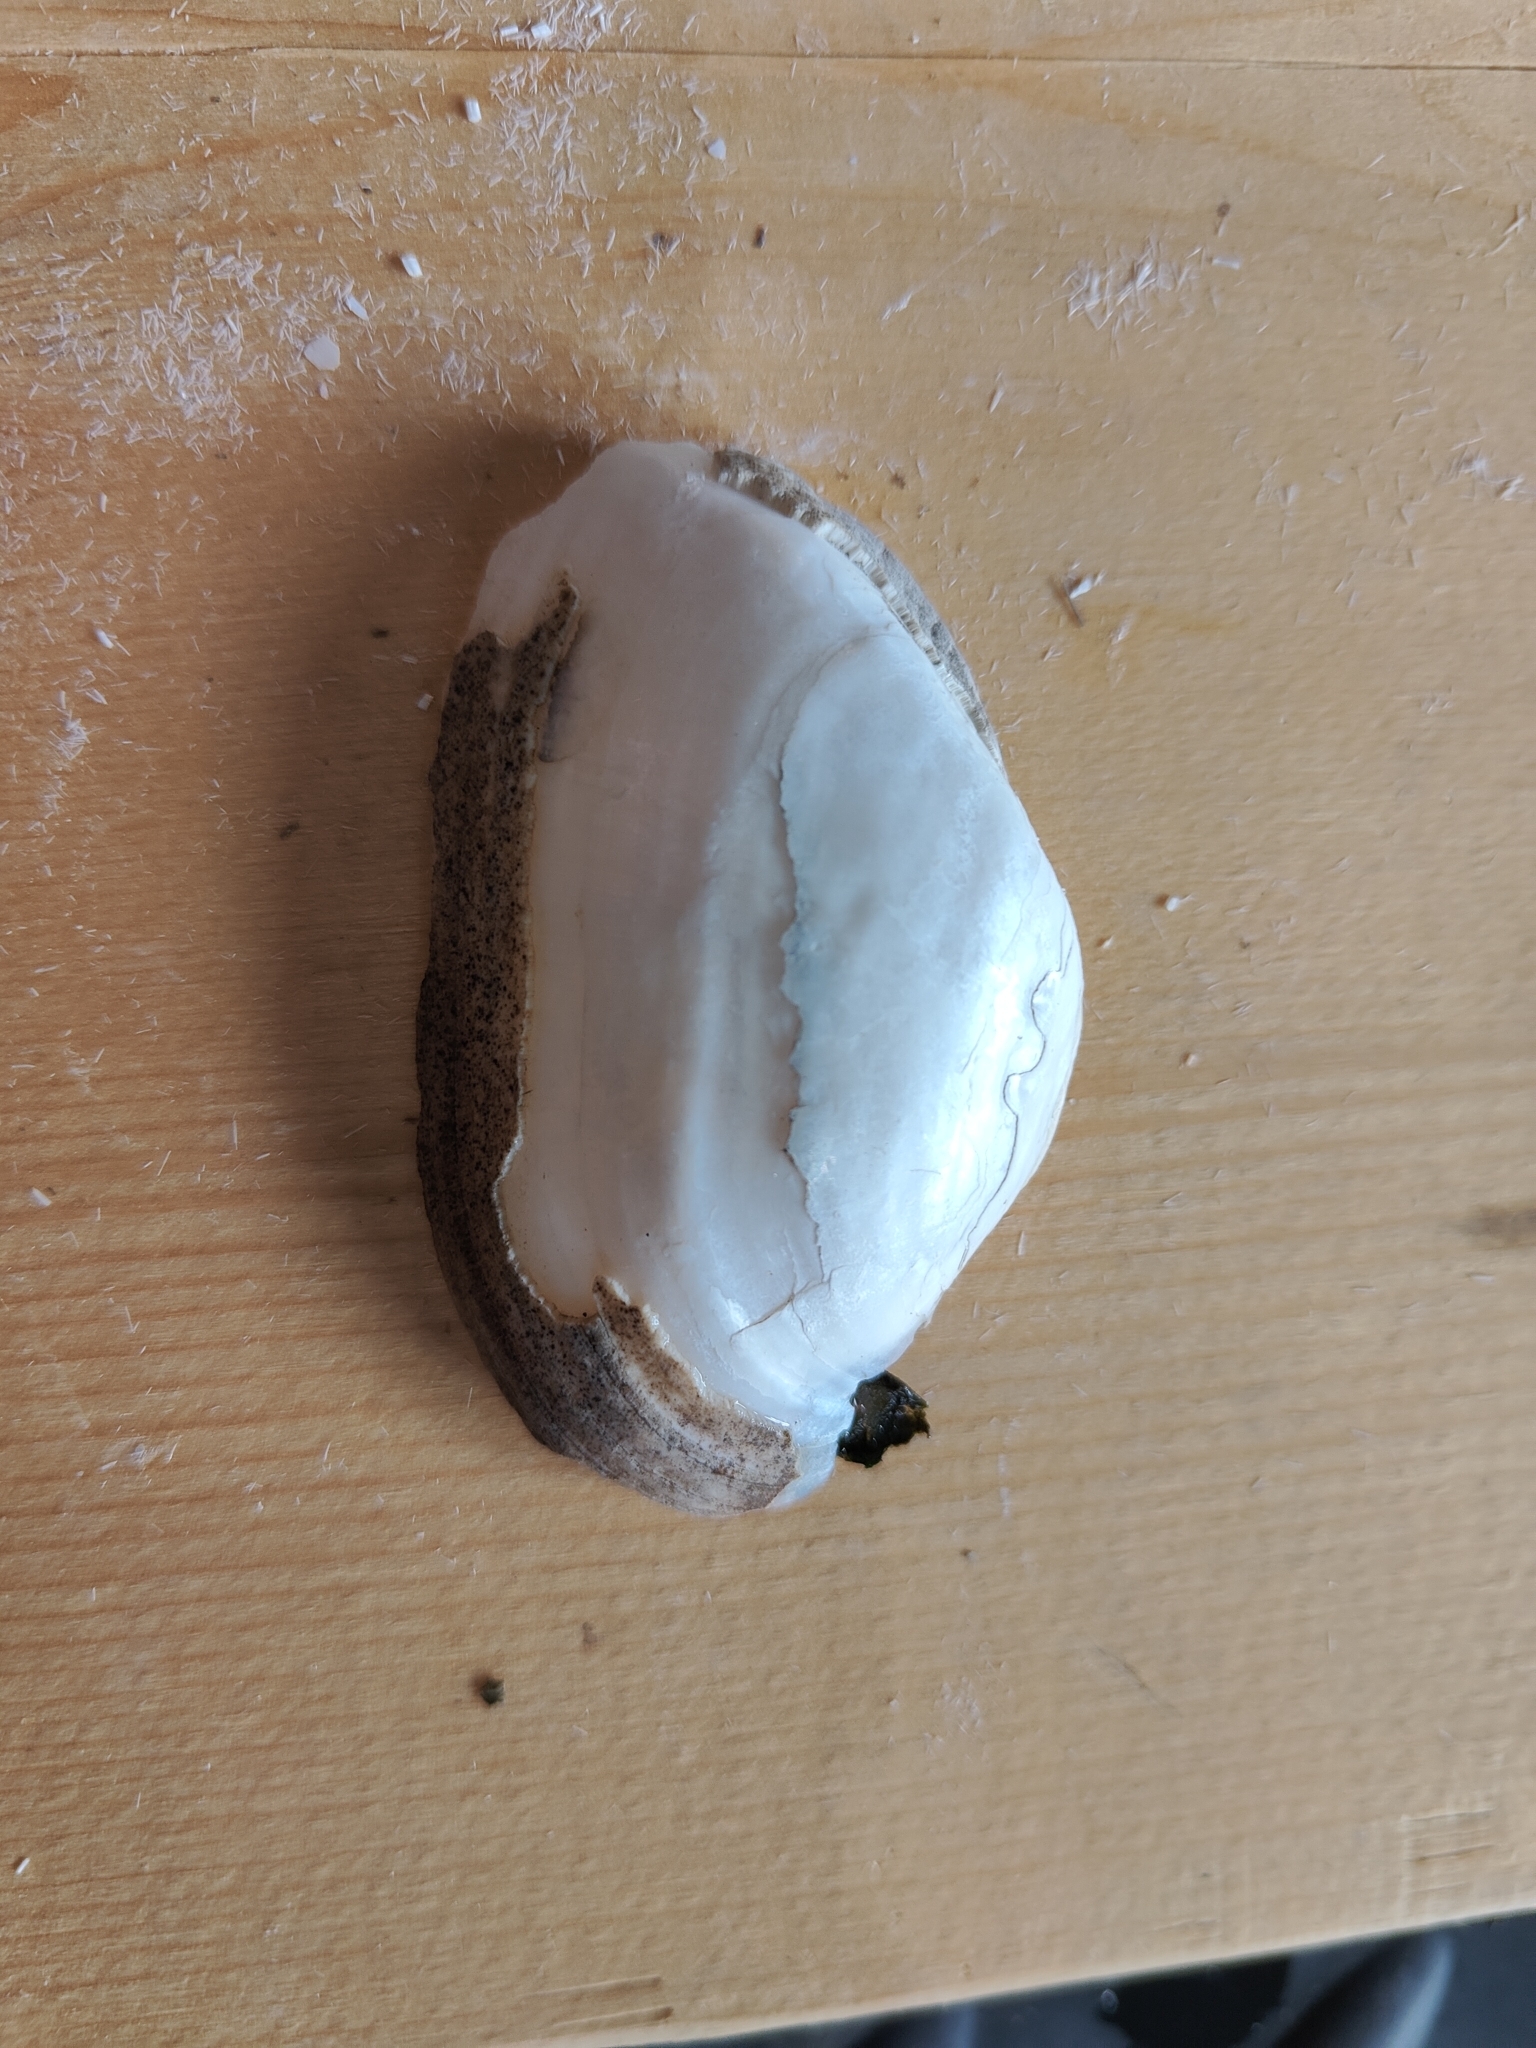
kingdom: Animalia
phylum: Mollusca
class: Bivalvia
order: Unionida
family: Unionidae
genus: Alasmidonta
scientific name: Alasmidonta marginata
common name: Elktoe
